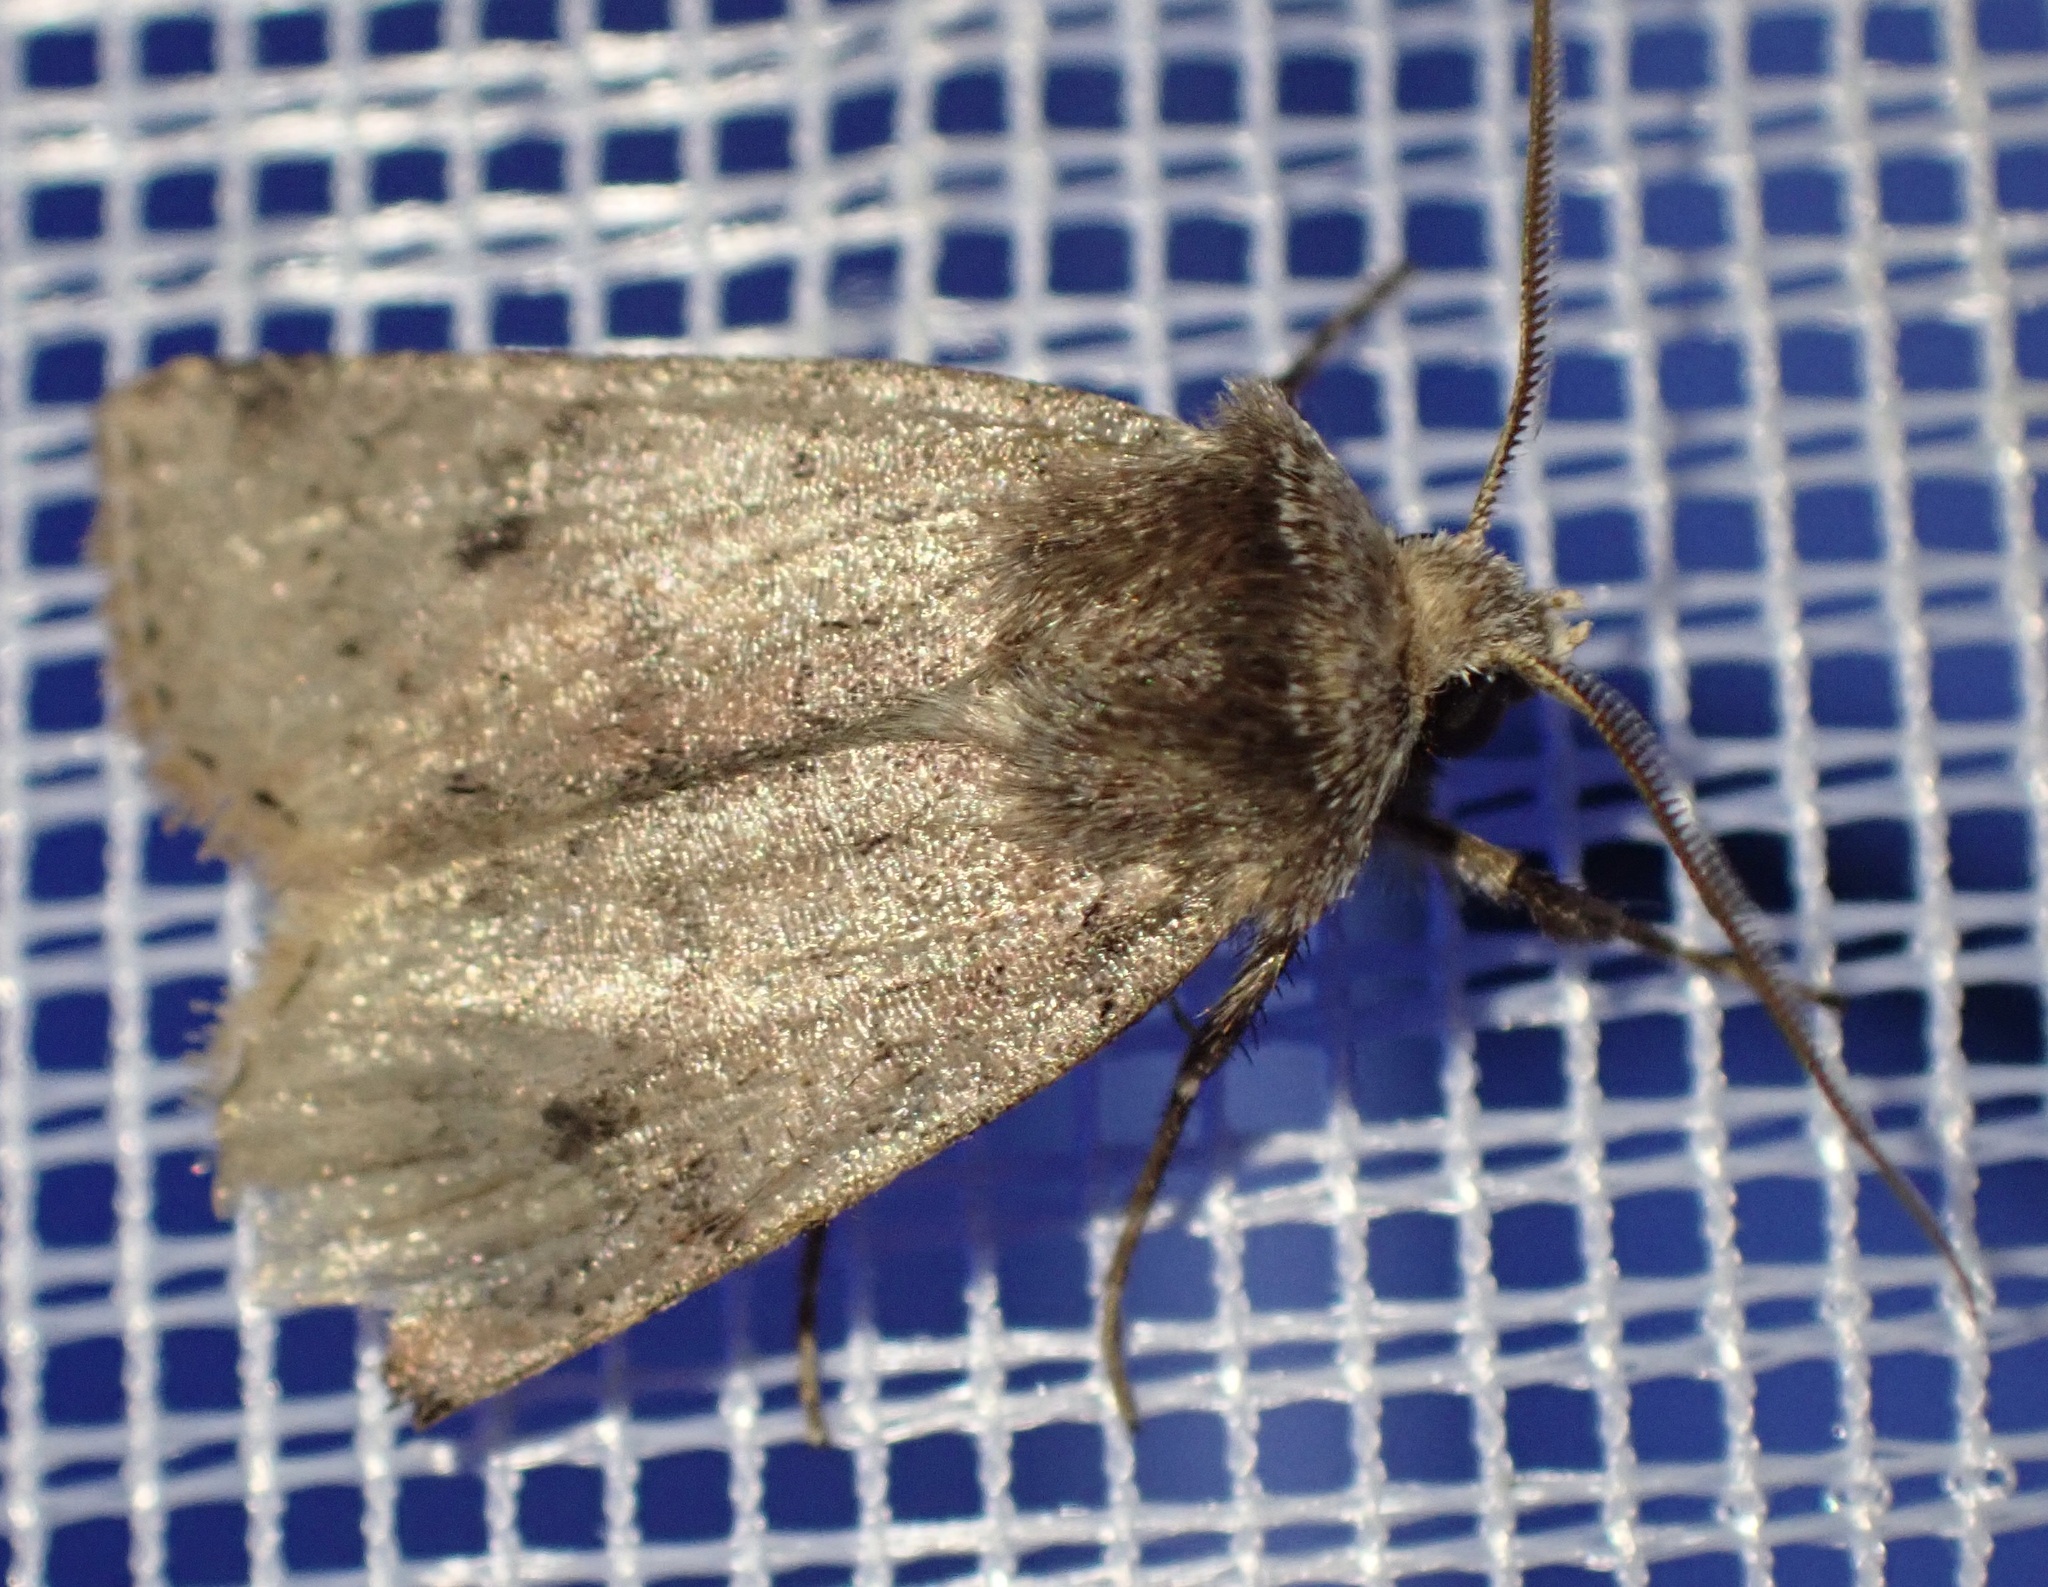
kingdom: Animalia
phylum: Arthropoda
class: Insecta
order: Lepidoptera
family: Noctuidae
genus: Cerastis
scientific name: Cerastis faceta
